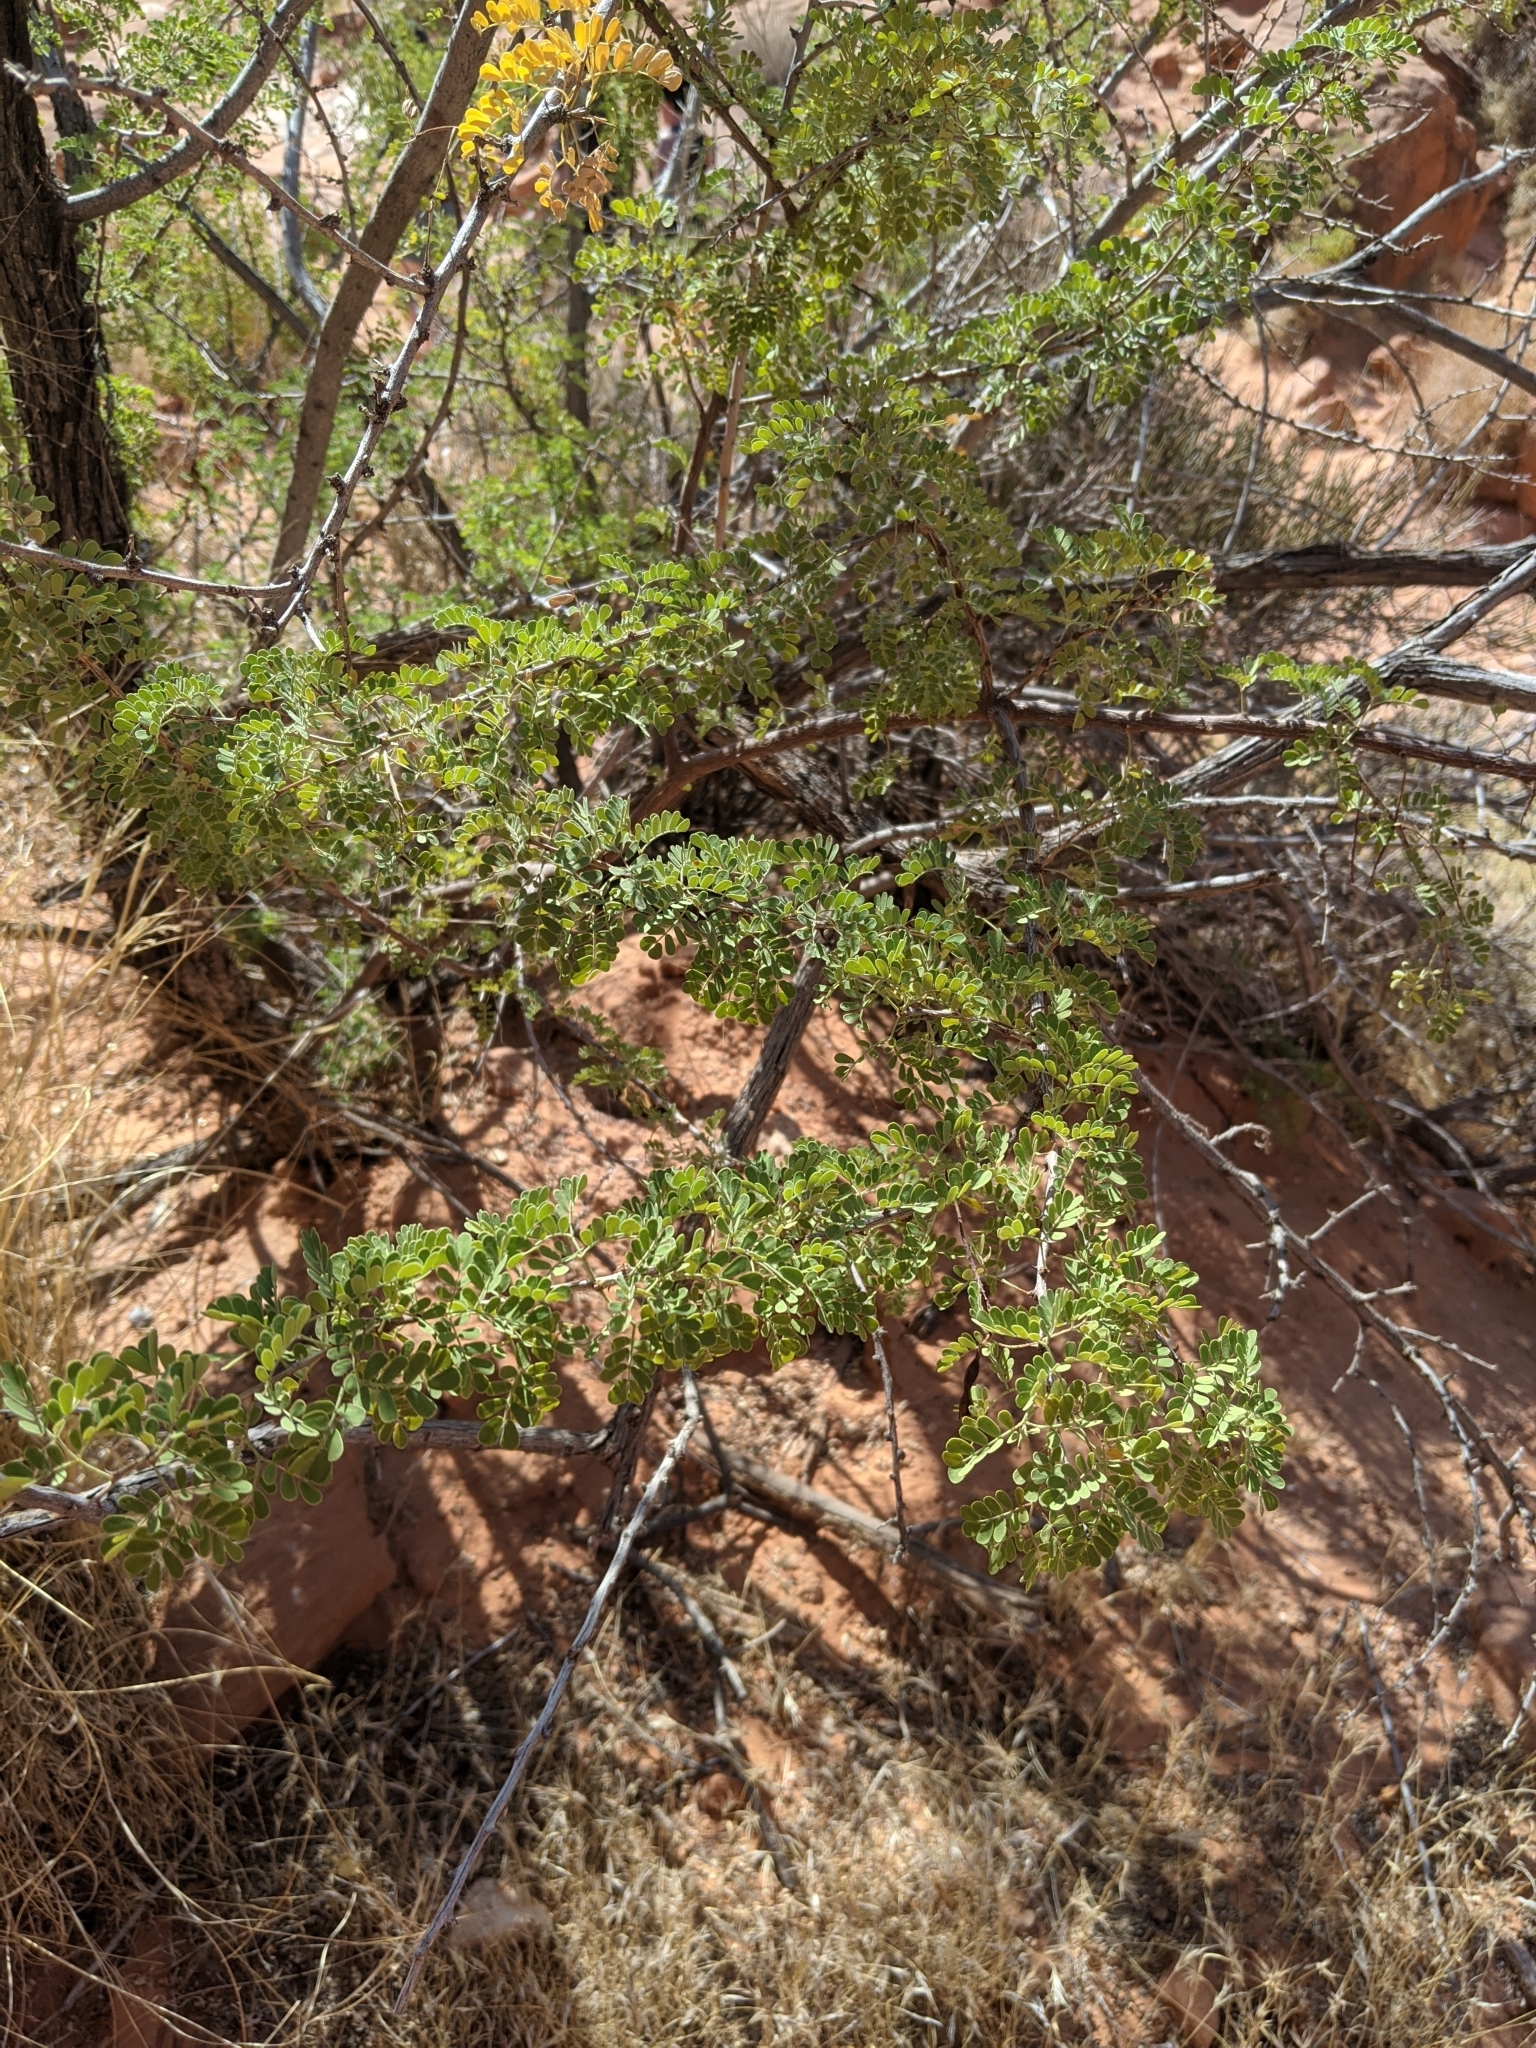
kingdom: Plantae
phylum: Tracheophyta
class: Magnoliopsida
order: Fabales
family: Fabaceae
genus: Senegalia
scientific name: Senegalia greggii
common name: Texas-mimosa
